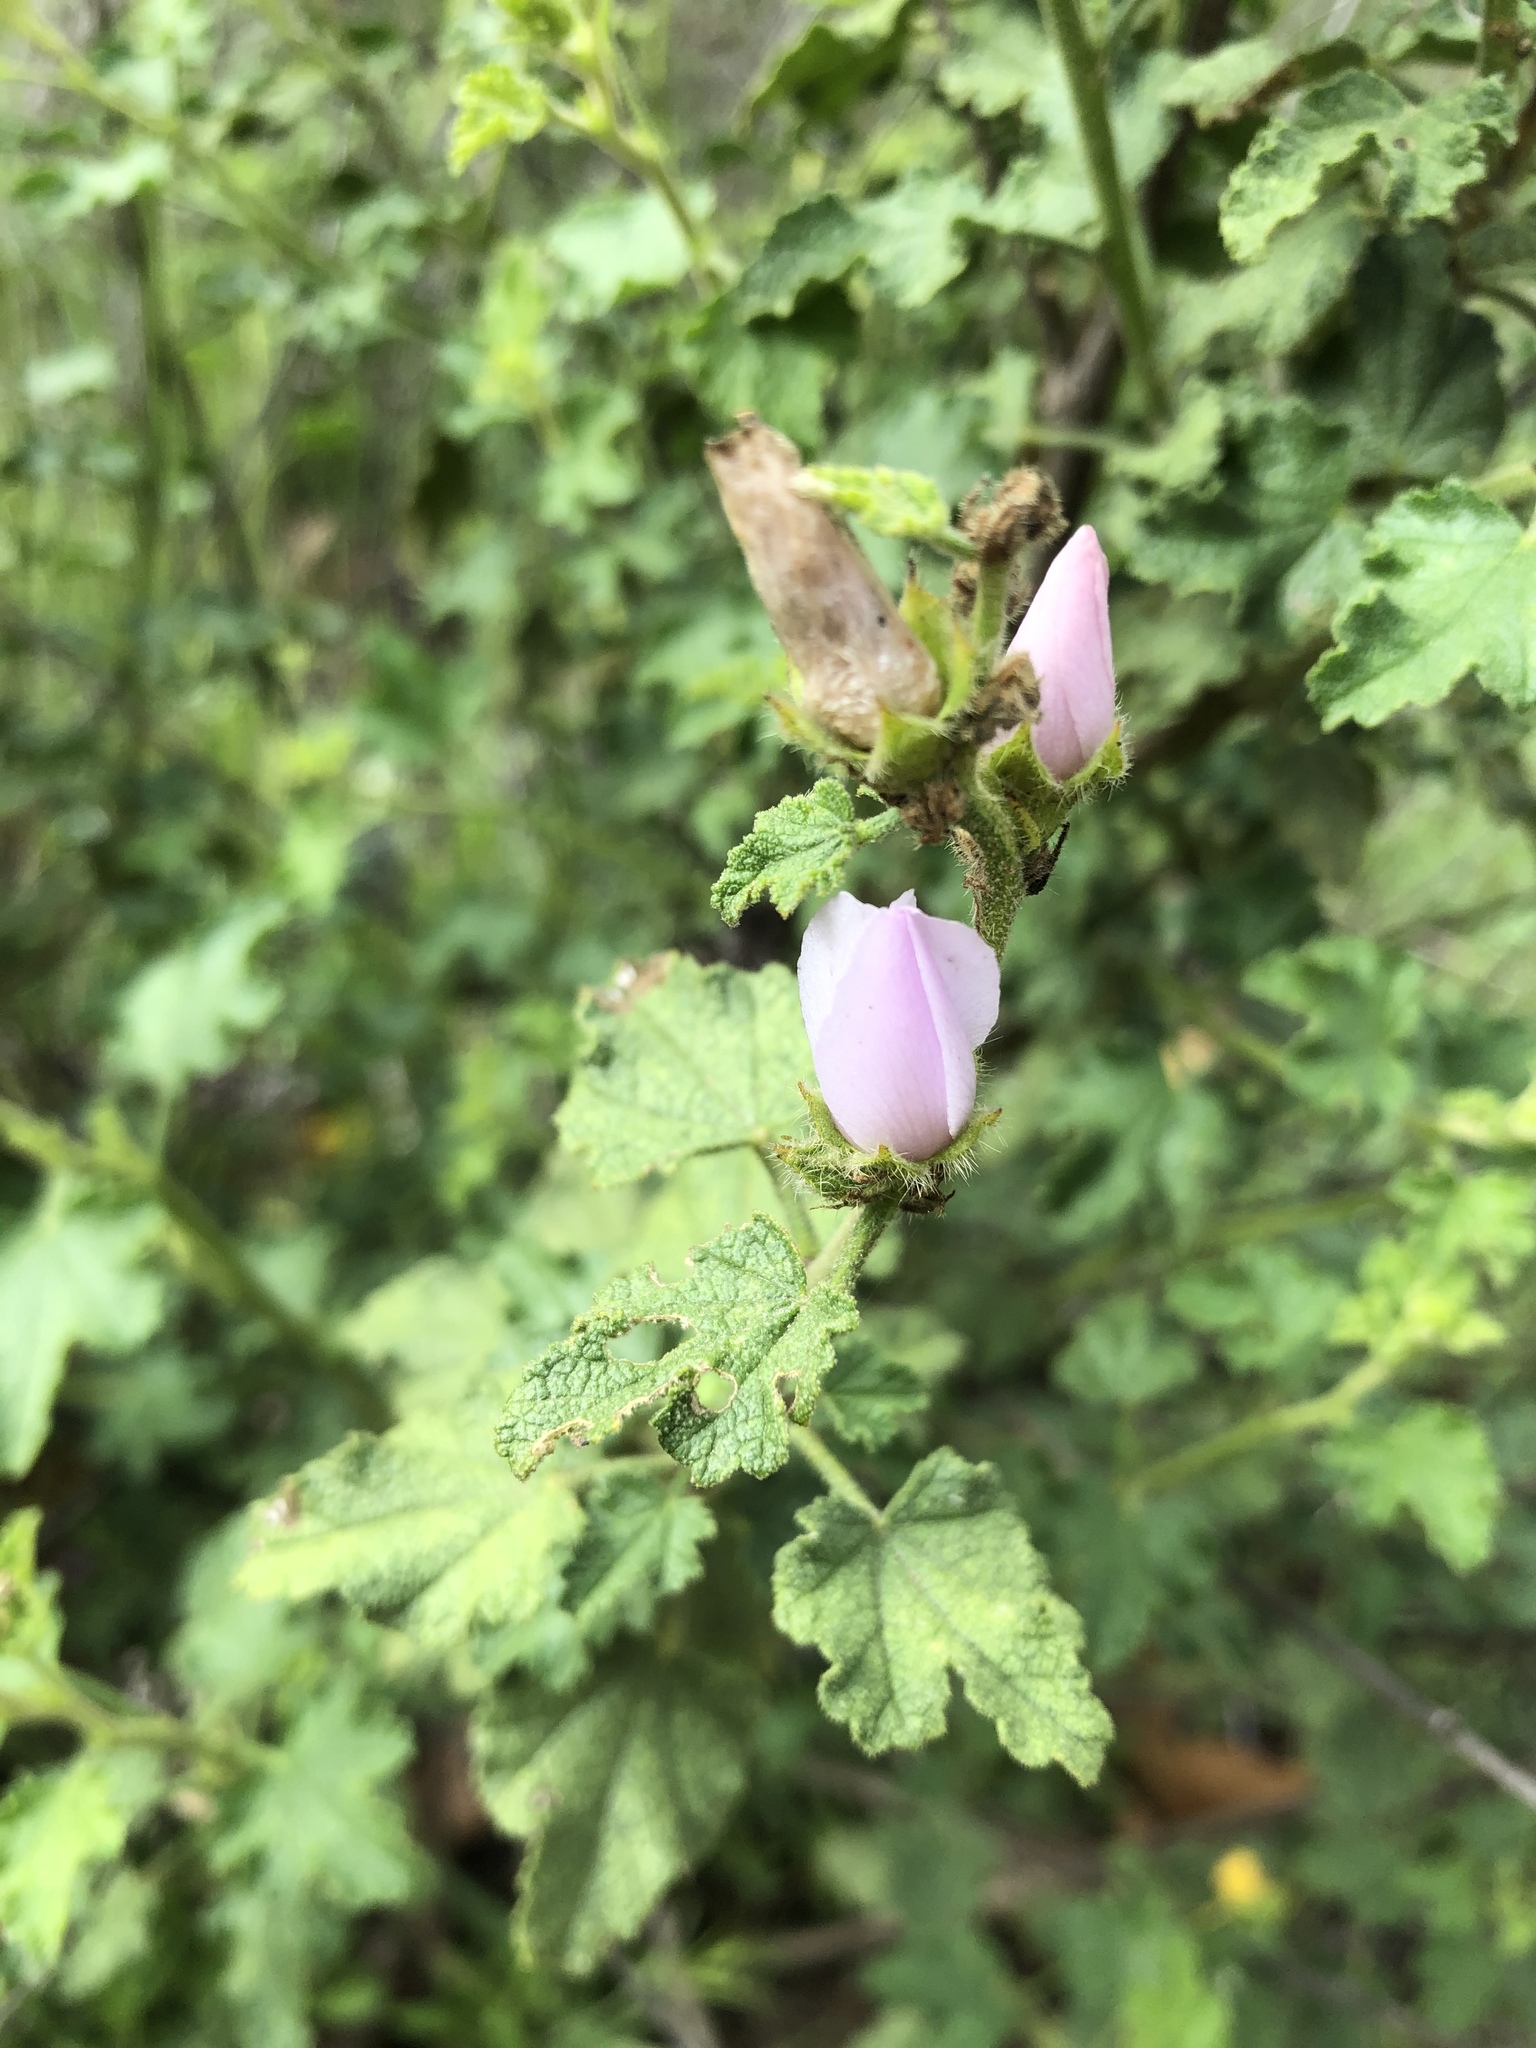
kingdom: Plantae
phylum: Tracheophyta
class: Magnoliopsida
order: Malvales
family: Malvaceae
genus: Malacothamnus
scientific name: Malacothamnus densiflorus
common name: Yellow-stem bush-mallow
